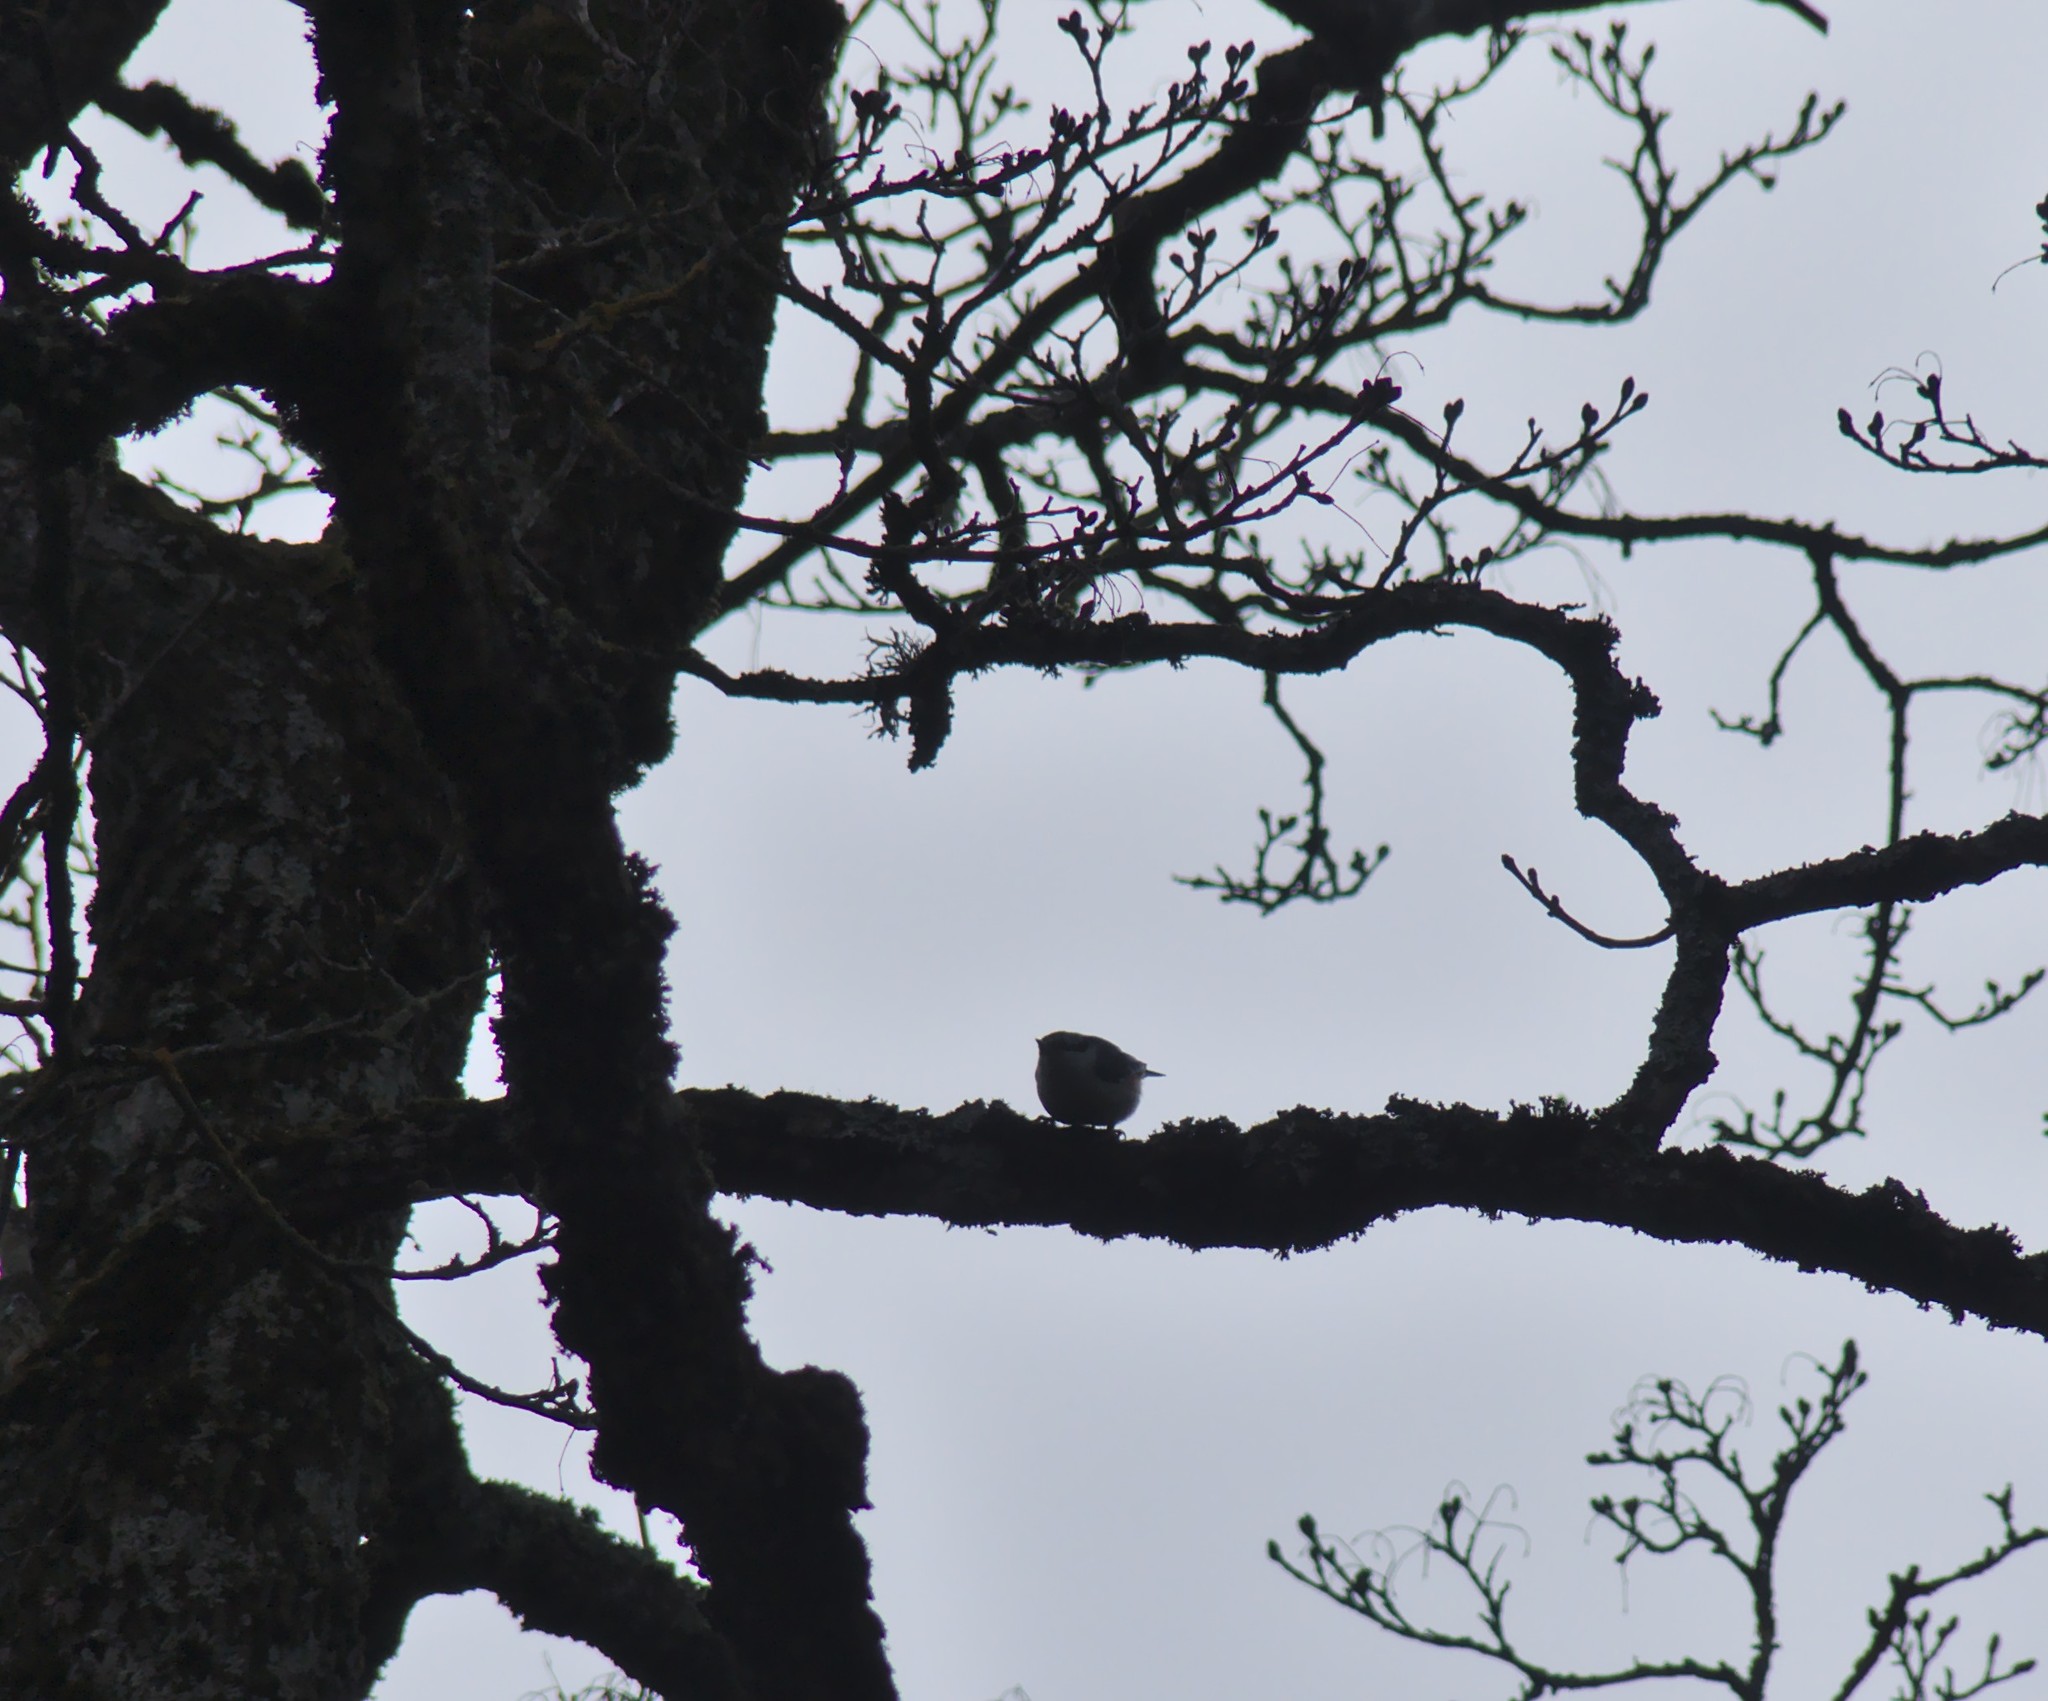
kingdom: Animalia
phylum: Chordata
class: Aves
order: Passeriformes
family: Sittidae
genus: Sitta
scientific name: Sitta europaea
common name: Eurasian nuthatch
